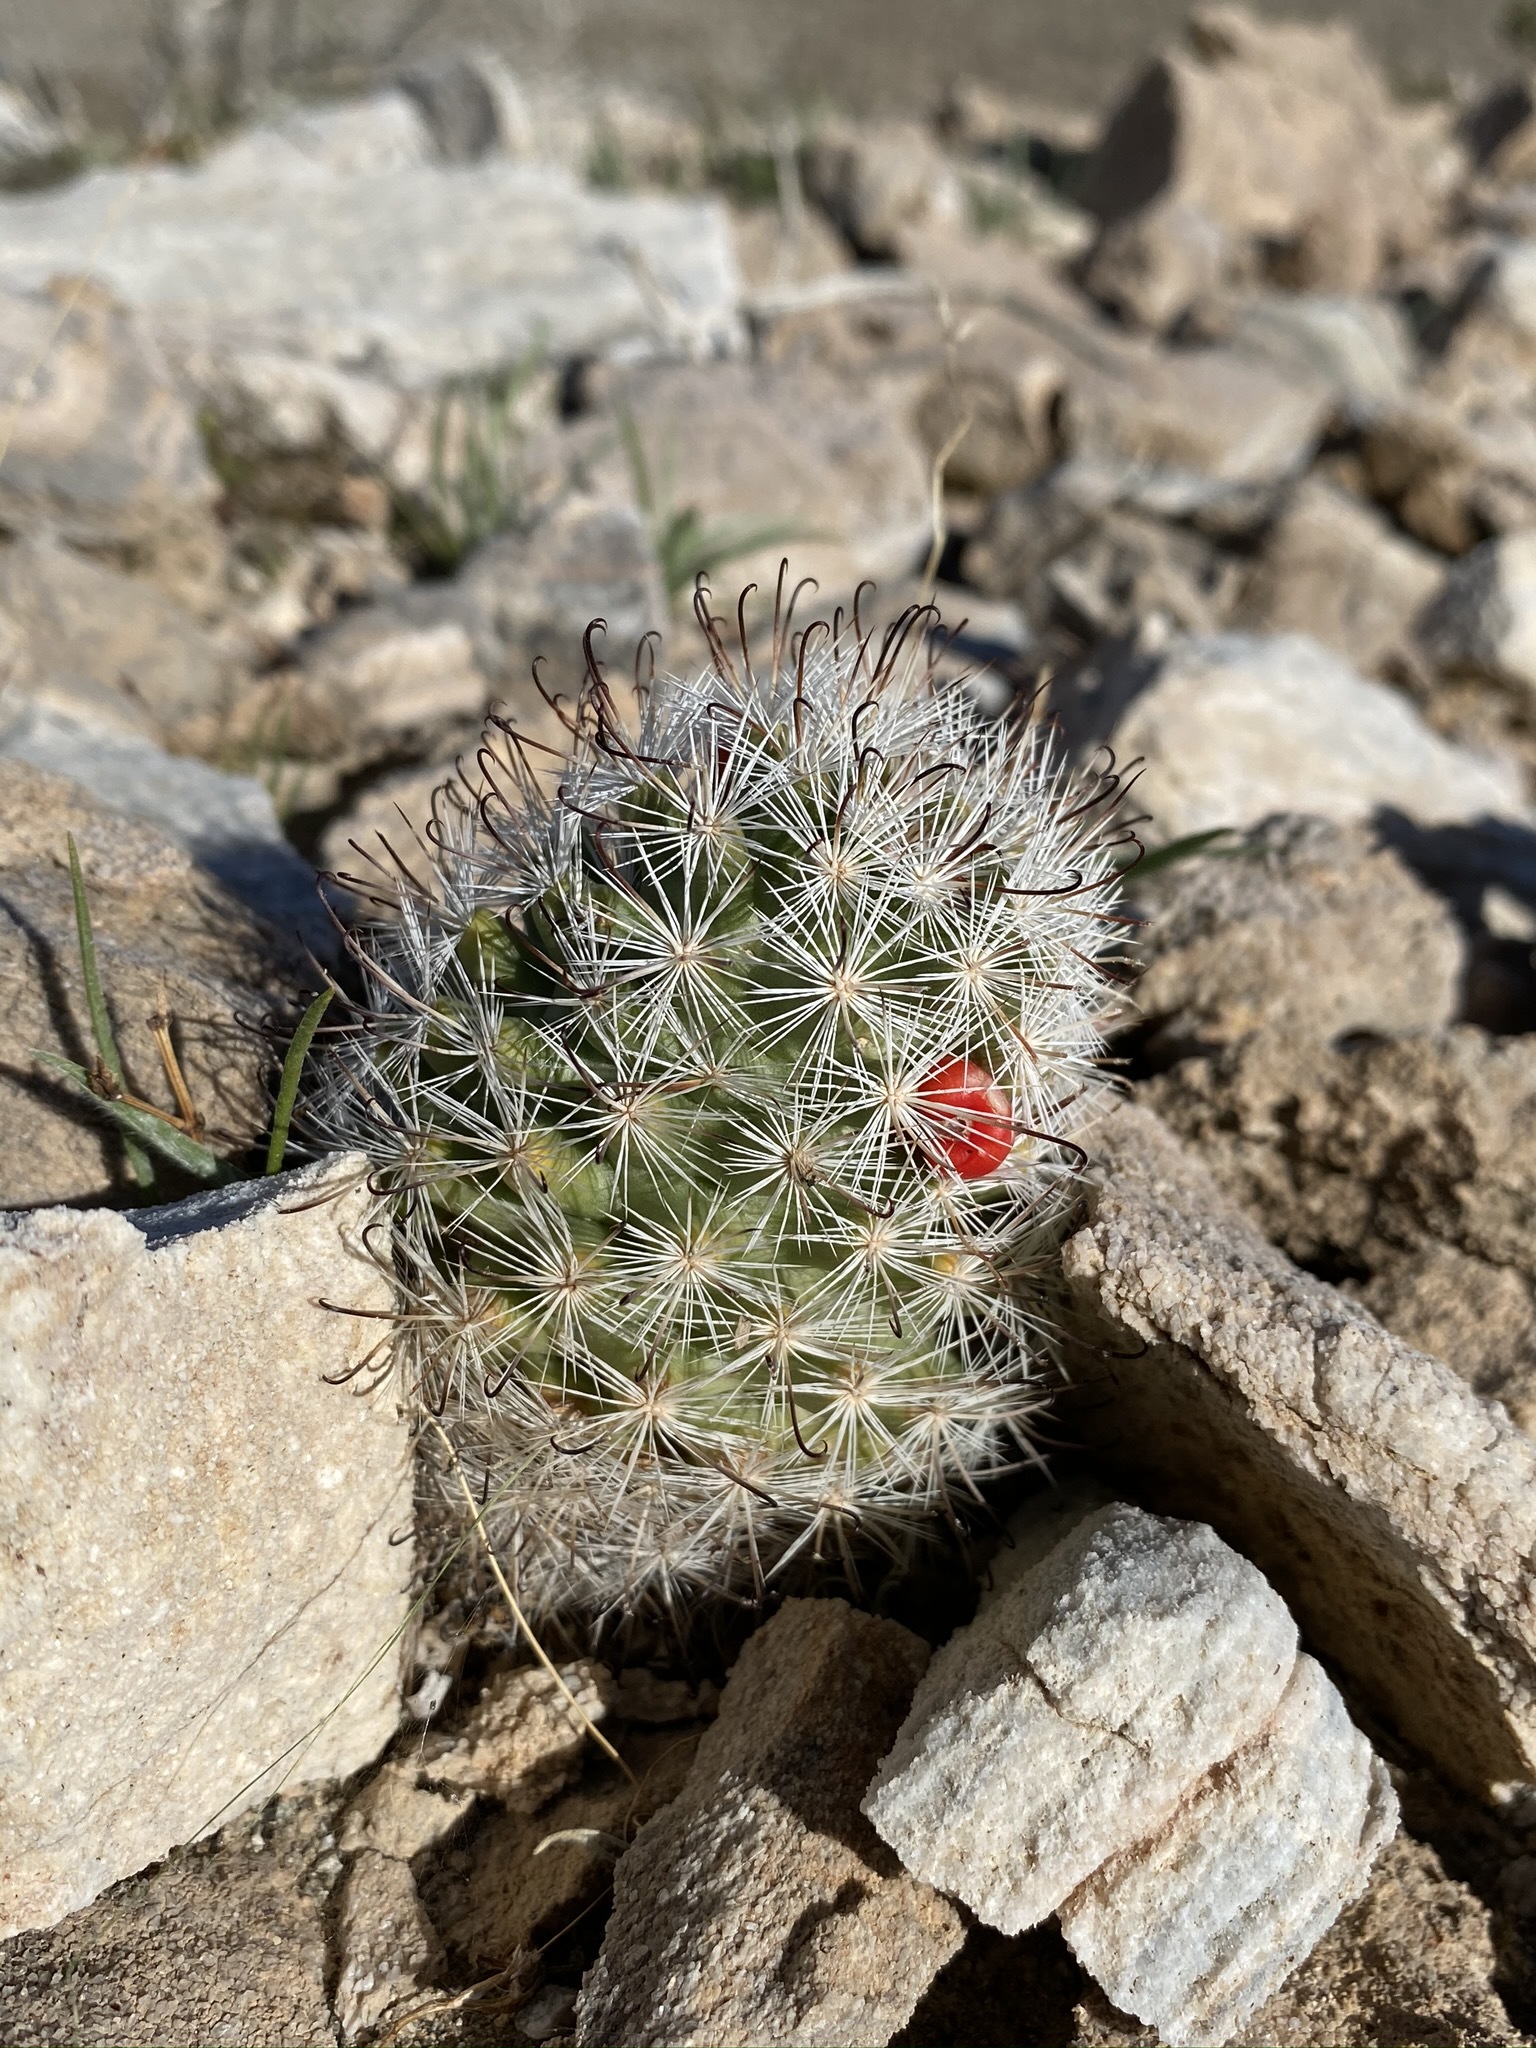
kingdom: Plantae
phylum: Tracheophyta
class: Magnoliopsida
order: Caryophyllales
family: Cactaceae
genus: Cochemiea
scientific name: Cochemiea tetrancistra
